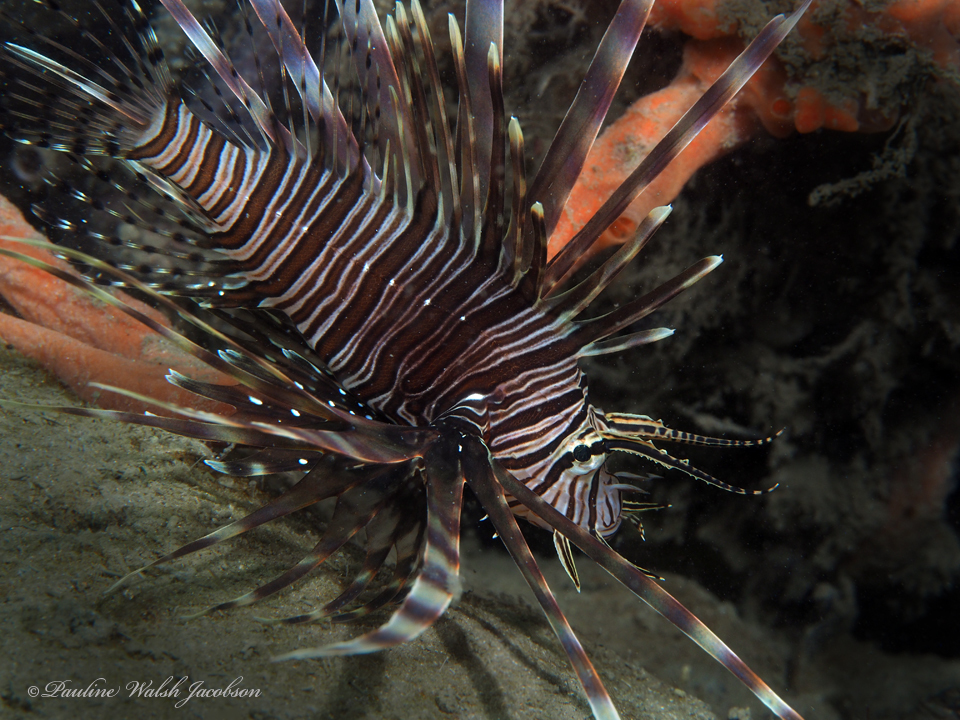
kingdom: Animalia
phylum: Chordata
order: Scorpaeniformes
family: Scorpaenidae
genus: Pterois
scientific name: Pterois volitans
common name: Lionfish
